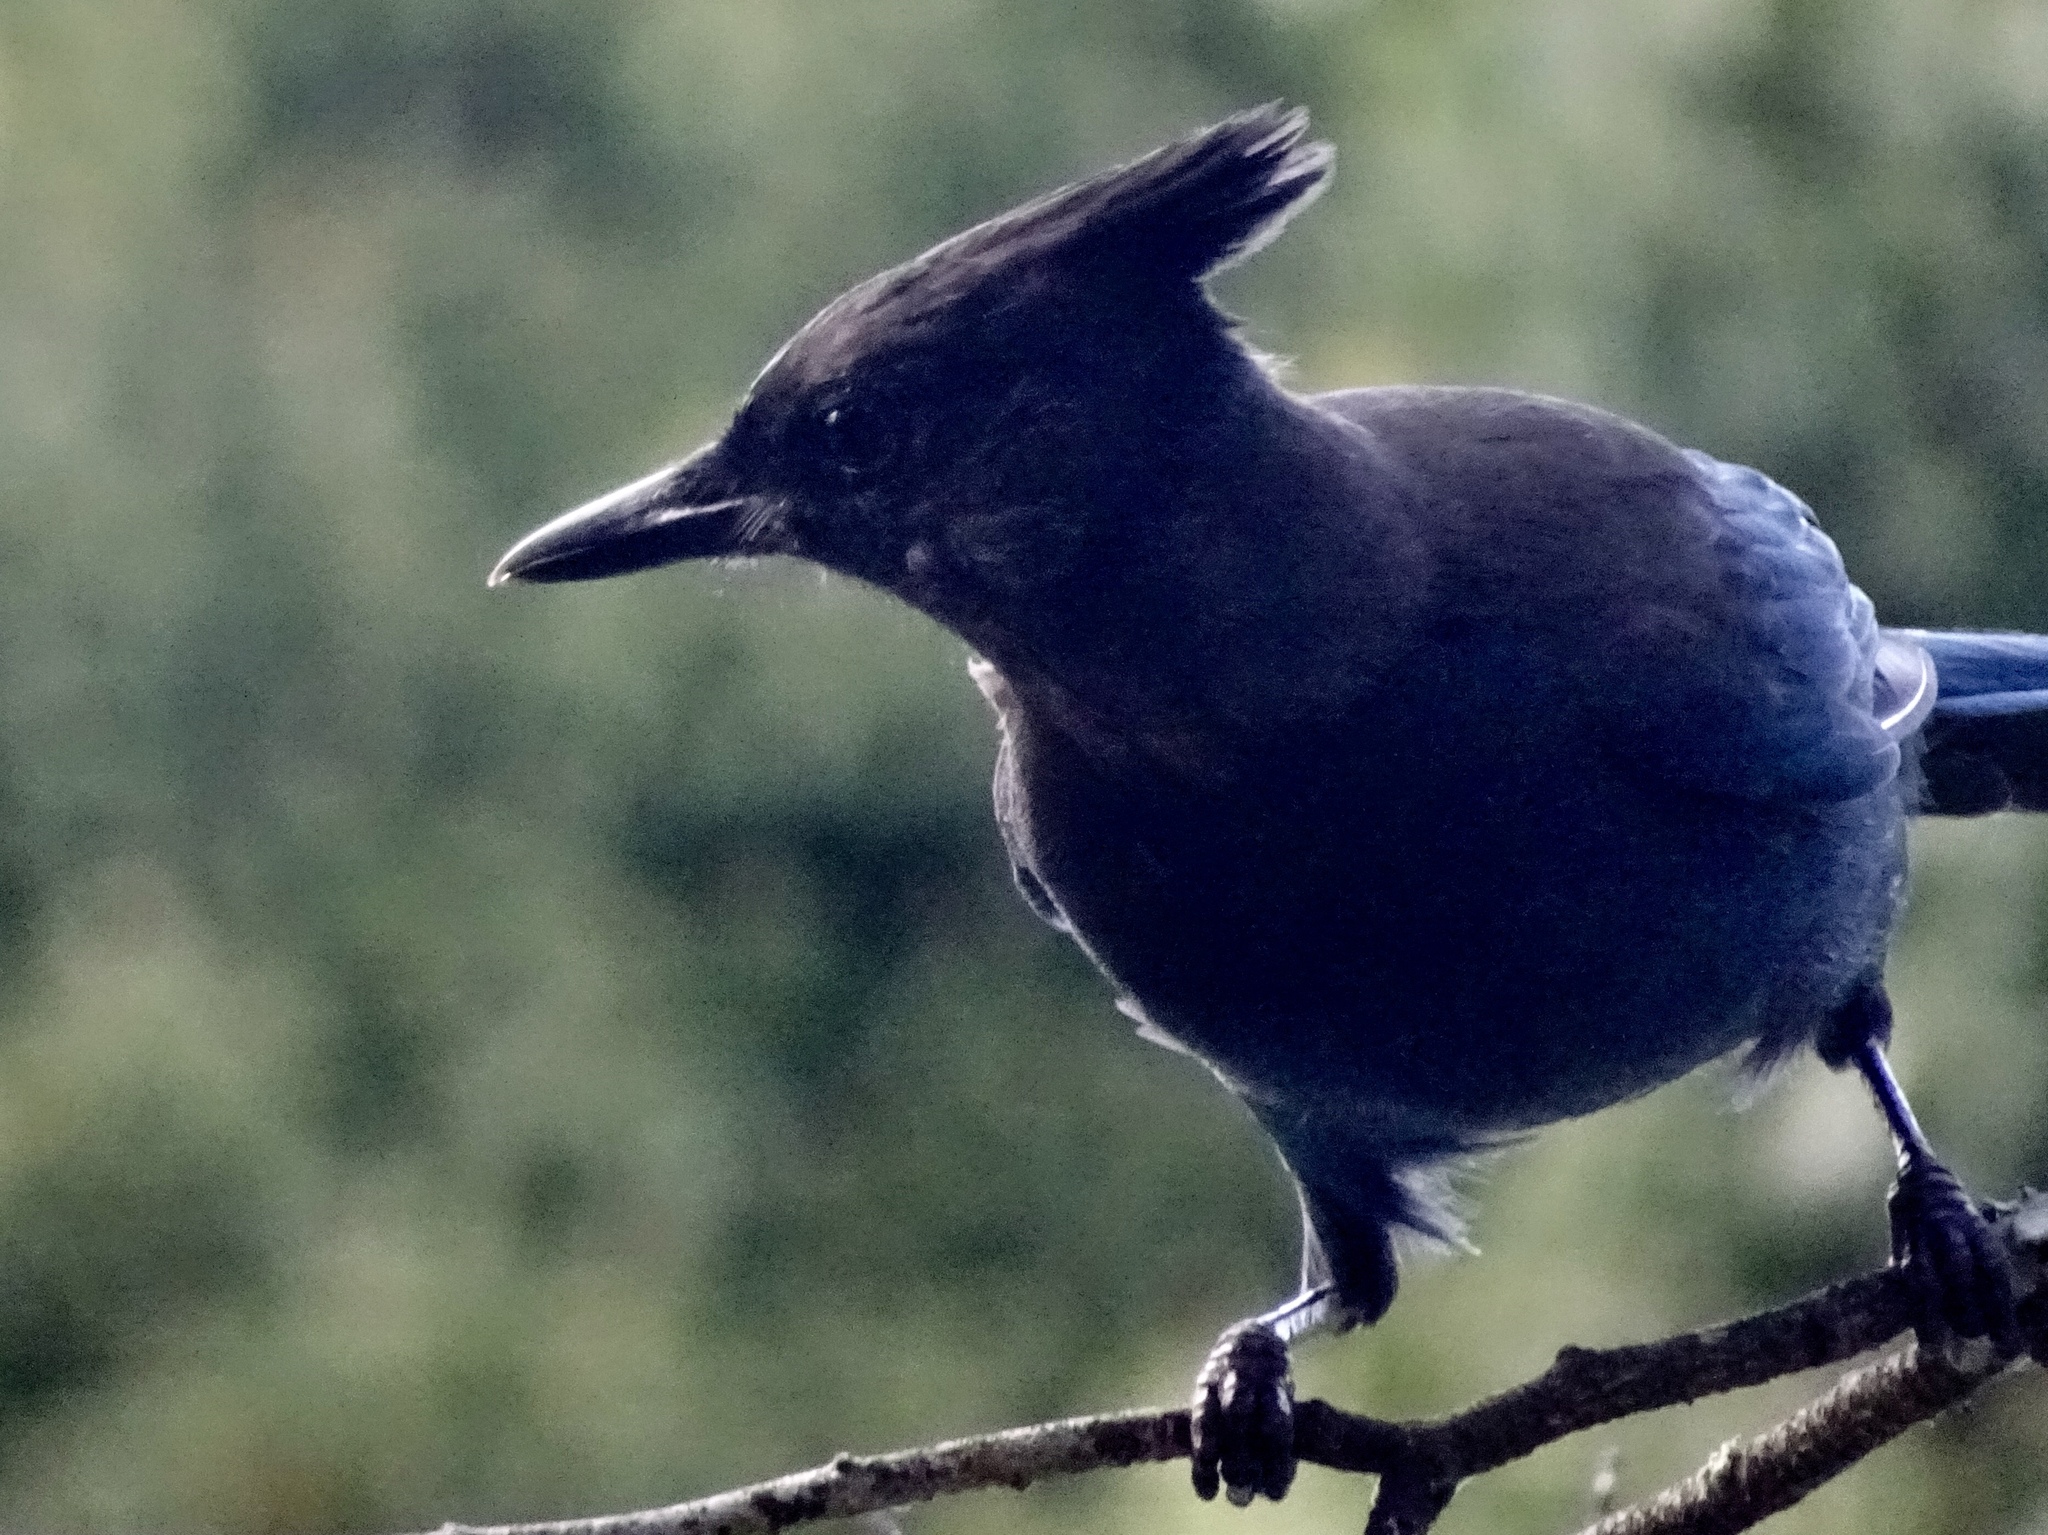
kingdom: Animalia
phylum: Chordata
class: Aves
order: Passeriformes
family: Corvidae
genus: Cyanocitta
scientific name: Cyanocitta stelleri
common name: Steller's jay
